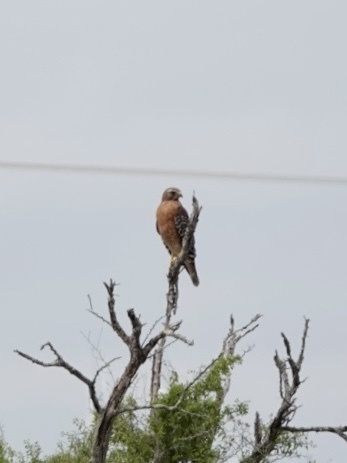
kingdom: Animalia
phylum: Chordata
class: Aves
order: Accipitriformes
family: Accipitridae
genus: Buteo
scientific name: Buteo lineatus
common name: Red-shouldered hawk
